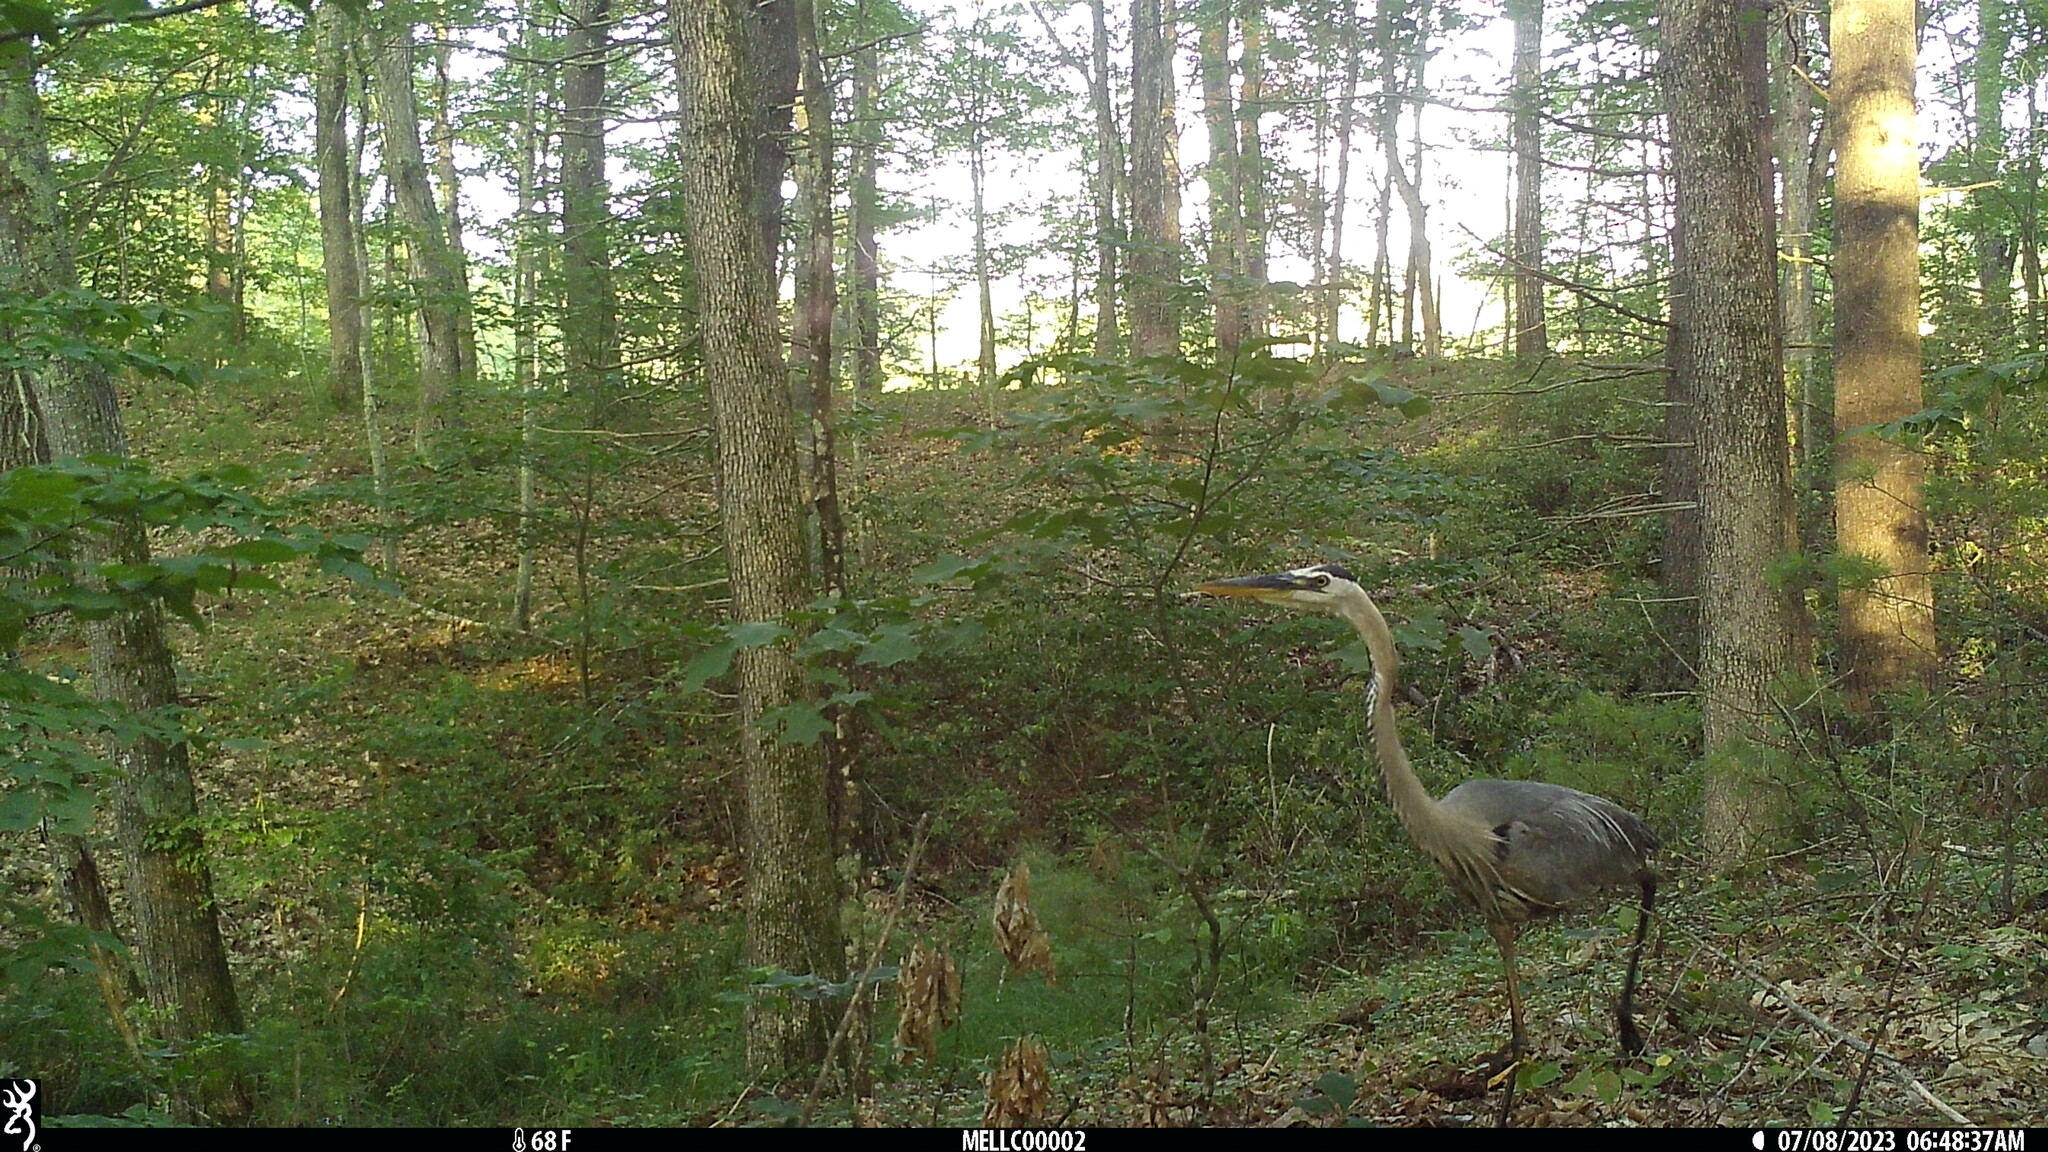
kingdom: Animalia
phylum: Chordata
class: Aves
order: Pelecaniformes
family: Ardeidae
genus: Ardea
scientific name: Ardea herodias
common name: Great blue heron
